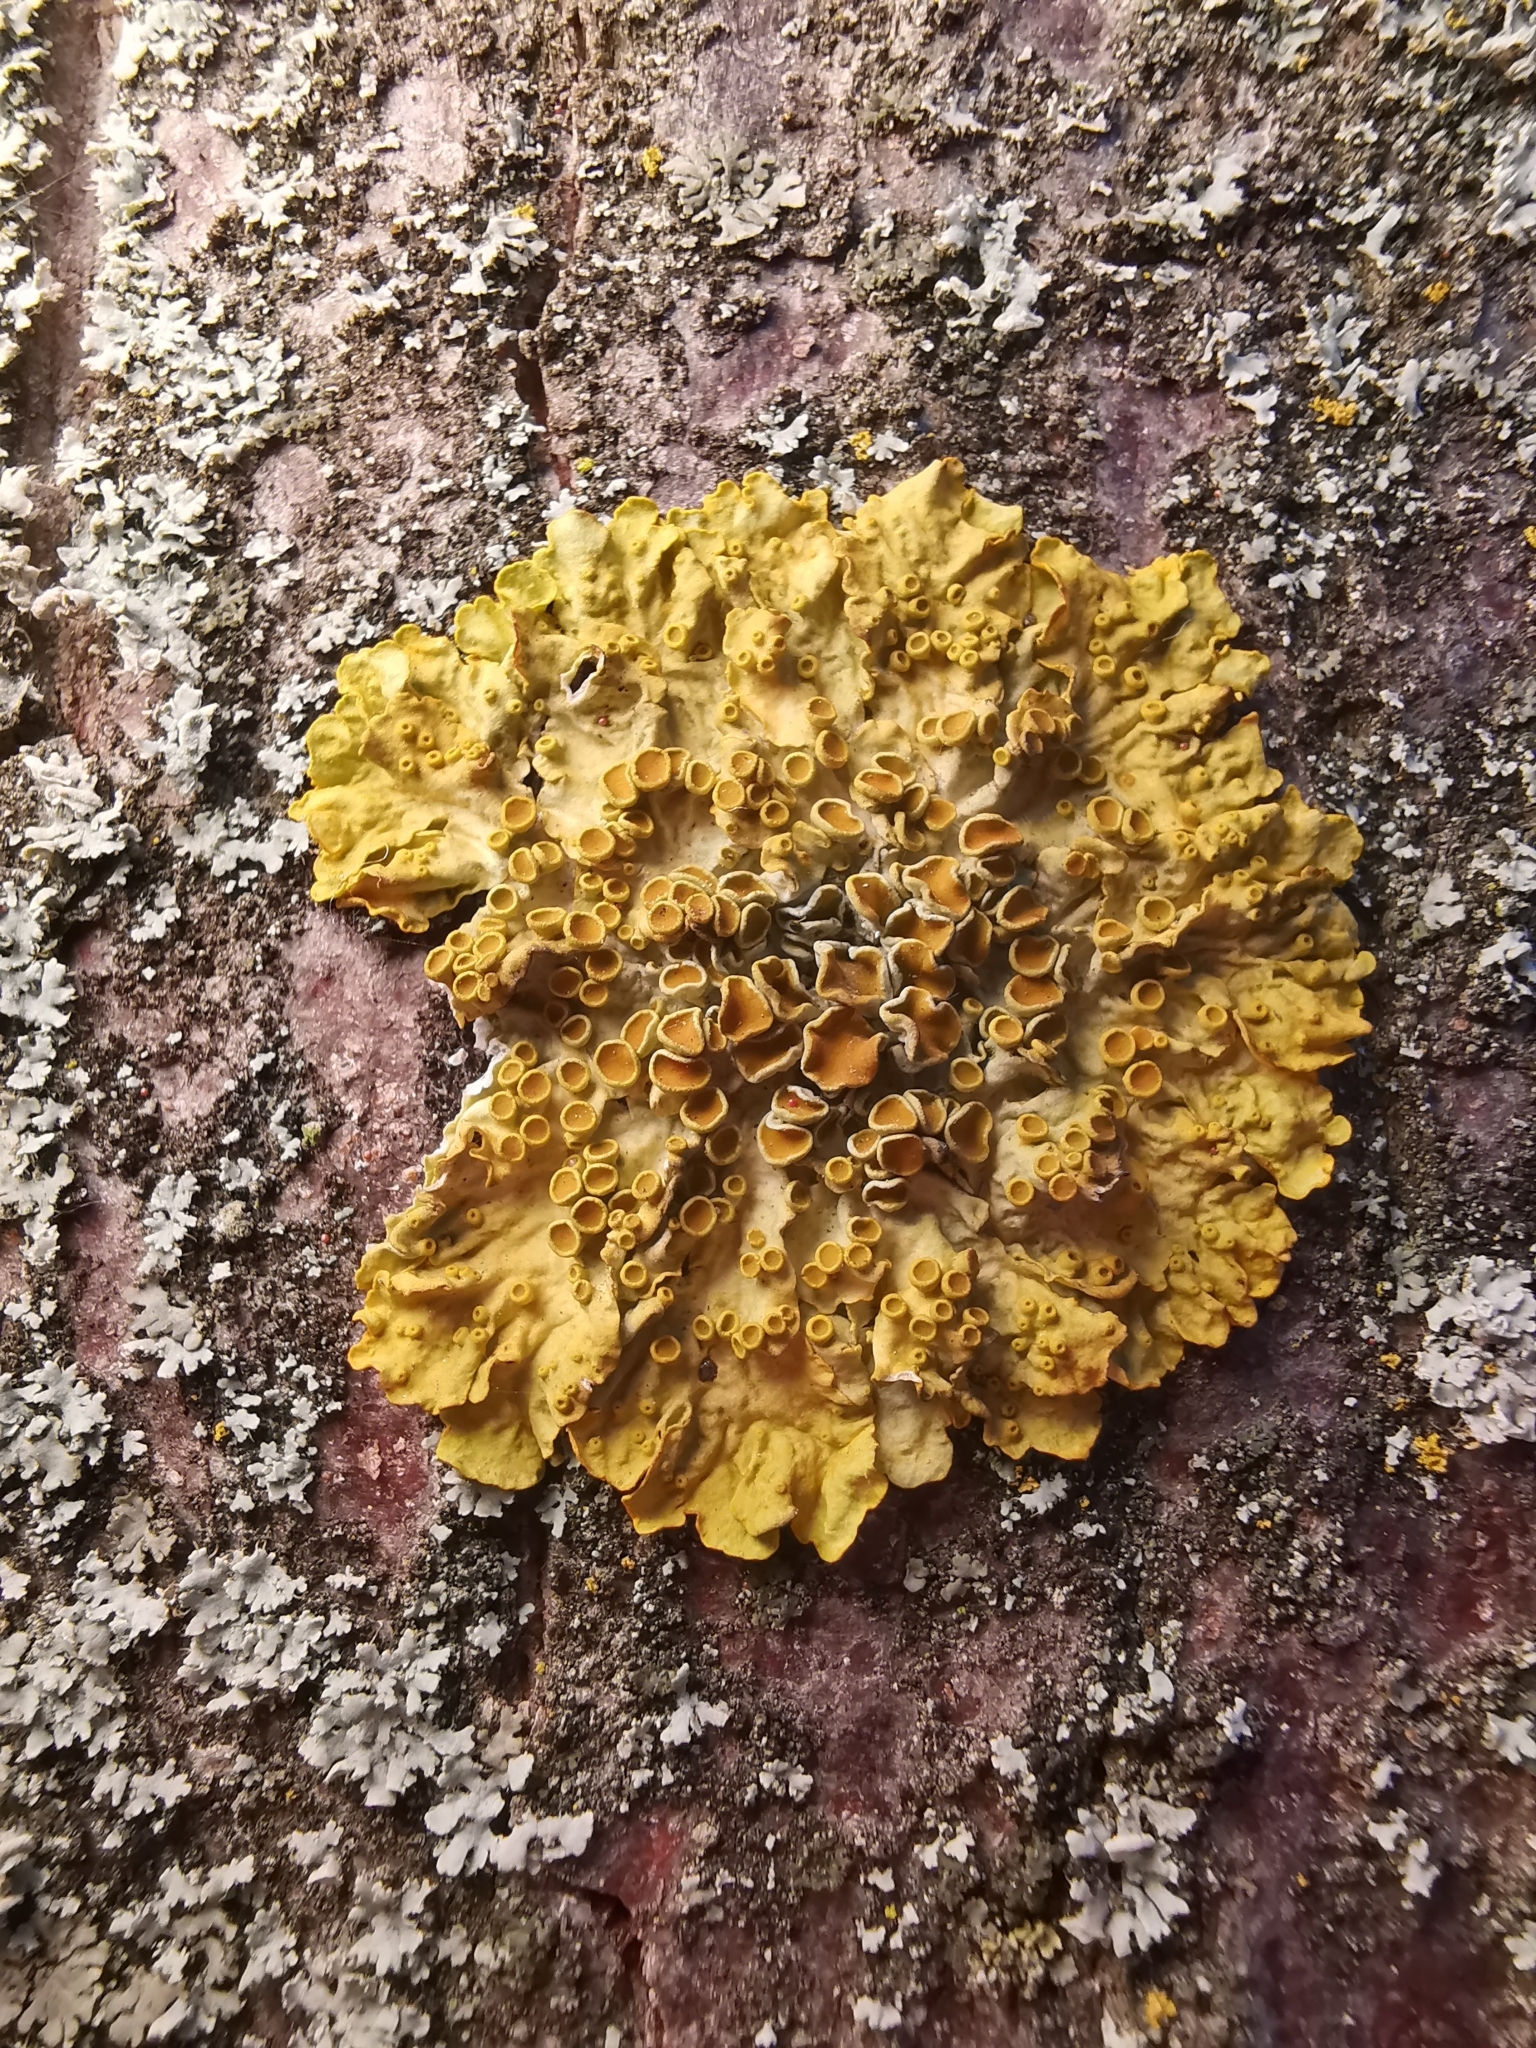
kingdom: Fungi
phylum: Ascomycota
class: Lecanoromycetes
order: Teloschistales
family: Teloschistaceae
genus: Xanthoria
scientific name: Xanthoria parietina
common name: Common orange lichen
